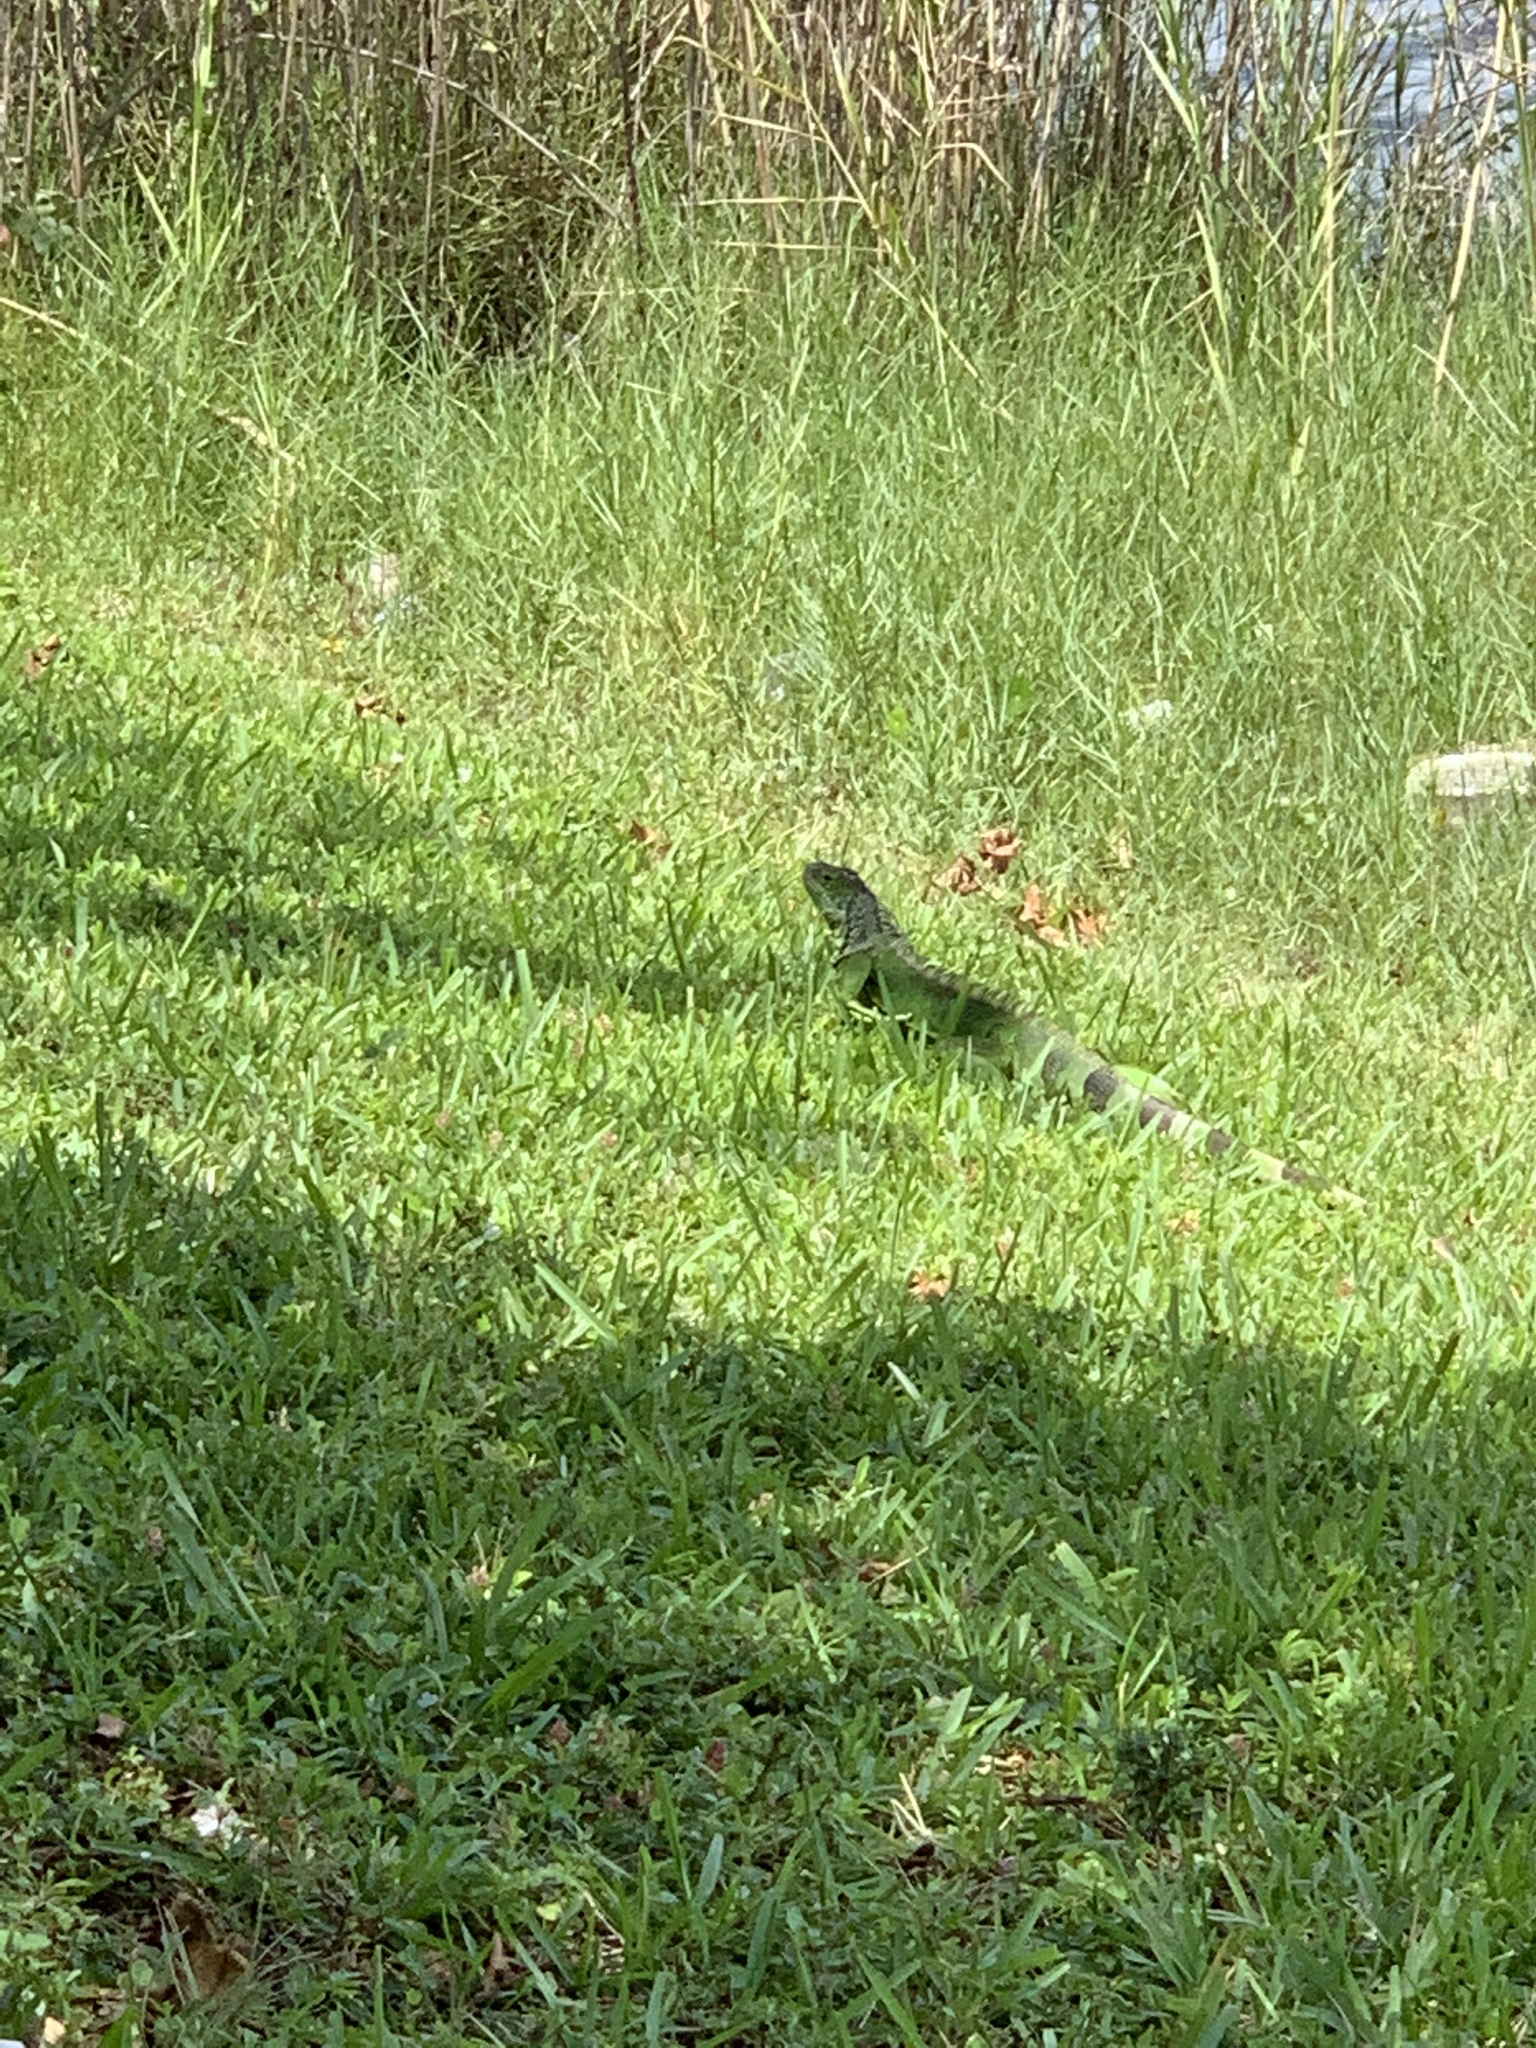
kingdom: Animalia
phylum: Chordata
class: Squamata
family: Iguanidae
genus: Iguana
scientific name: Iguana iguana
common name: Green iguana
